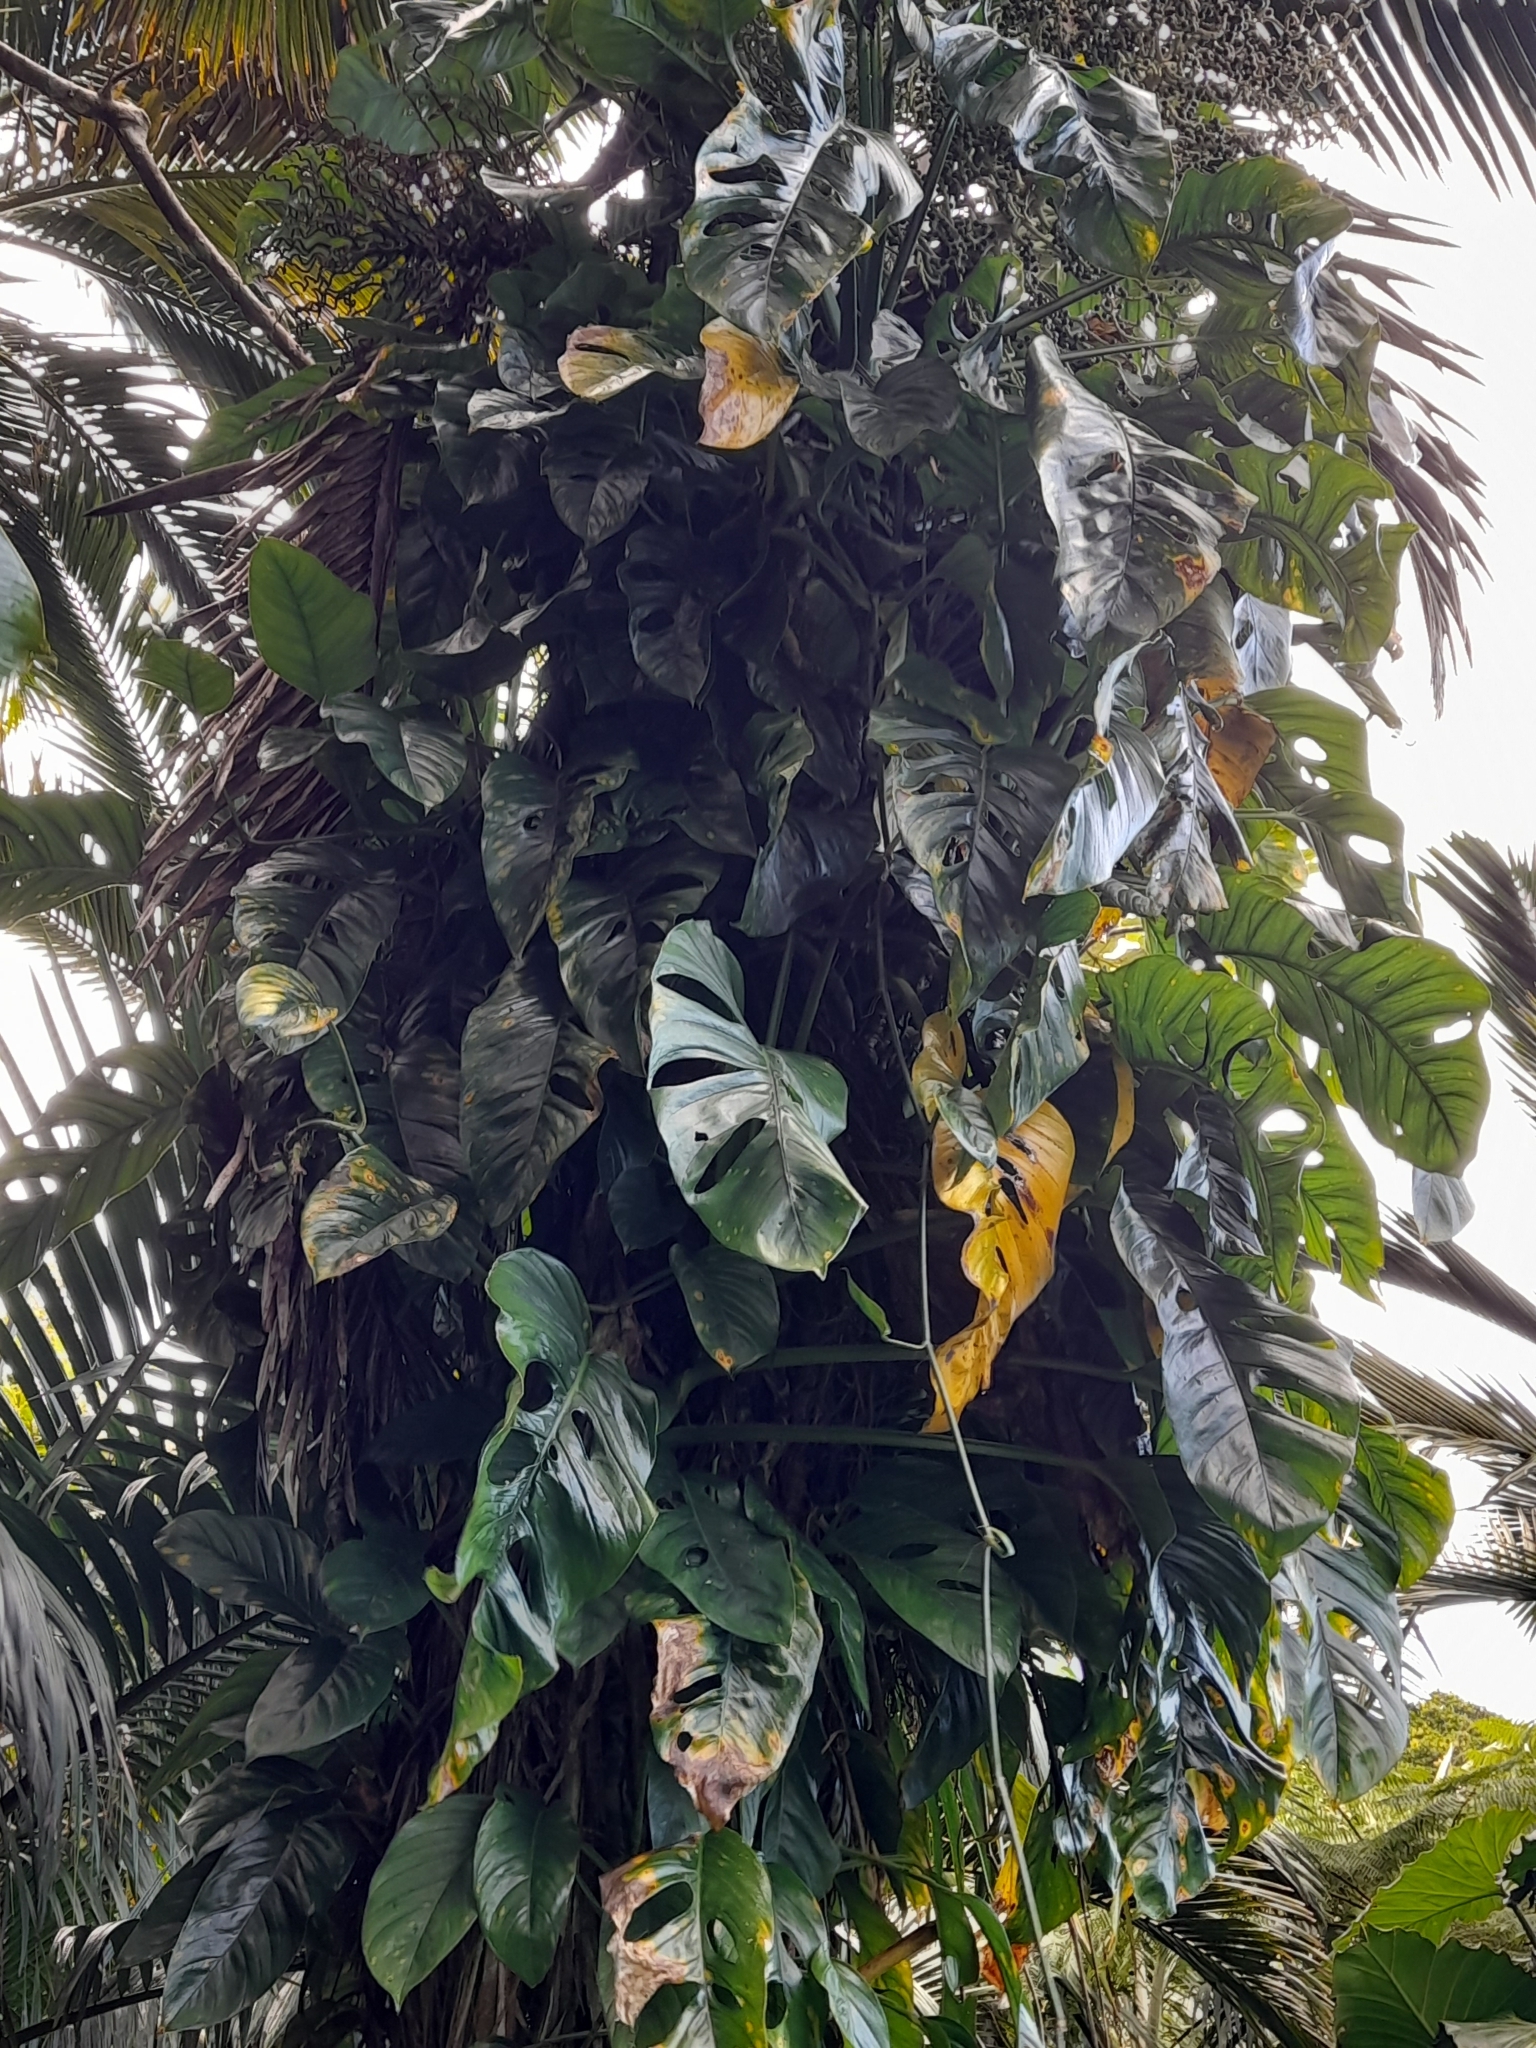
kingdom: Plantae
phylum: Tracheophyta
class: Liliopsida
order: Alismatales
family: Araceae
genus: Monstera
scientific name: Monstera adansonii
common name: Tarovine
